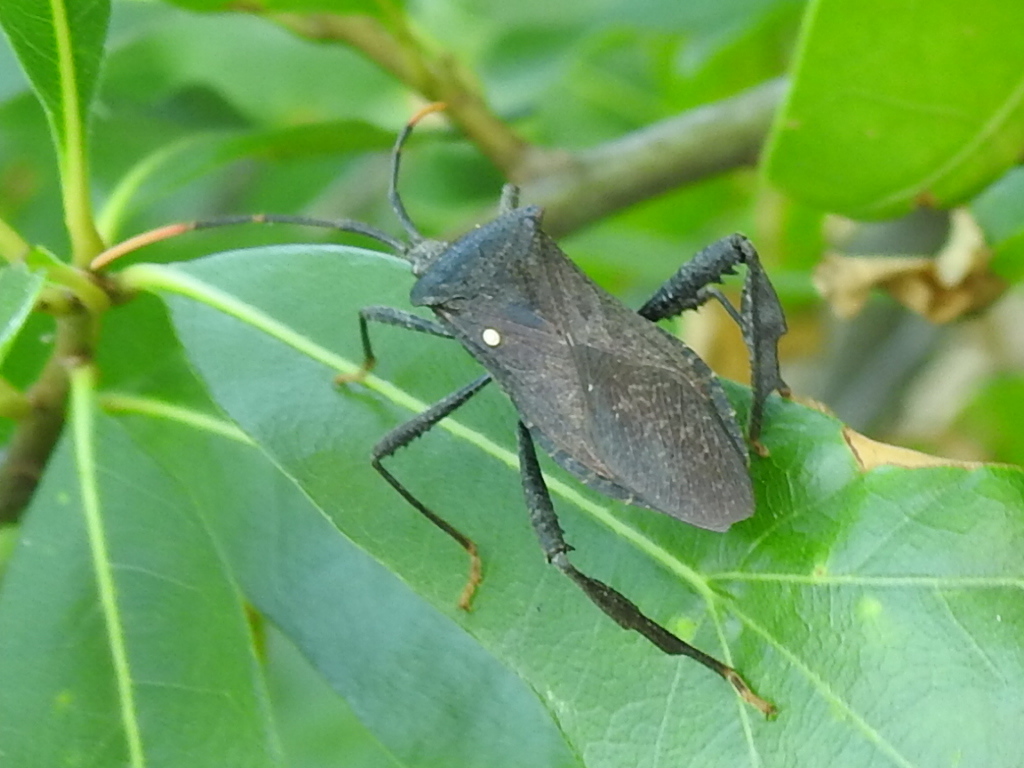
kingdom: Animalia
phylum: Arthropoda
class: Insecta
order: Hemiptera
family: Coreidae
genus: Acanthocephala
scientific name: Acanthocephala terminalis
